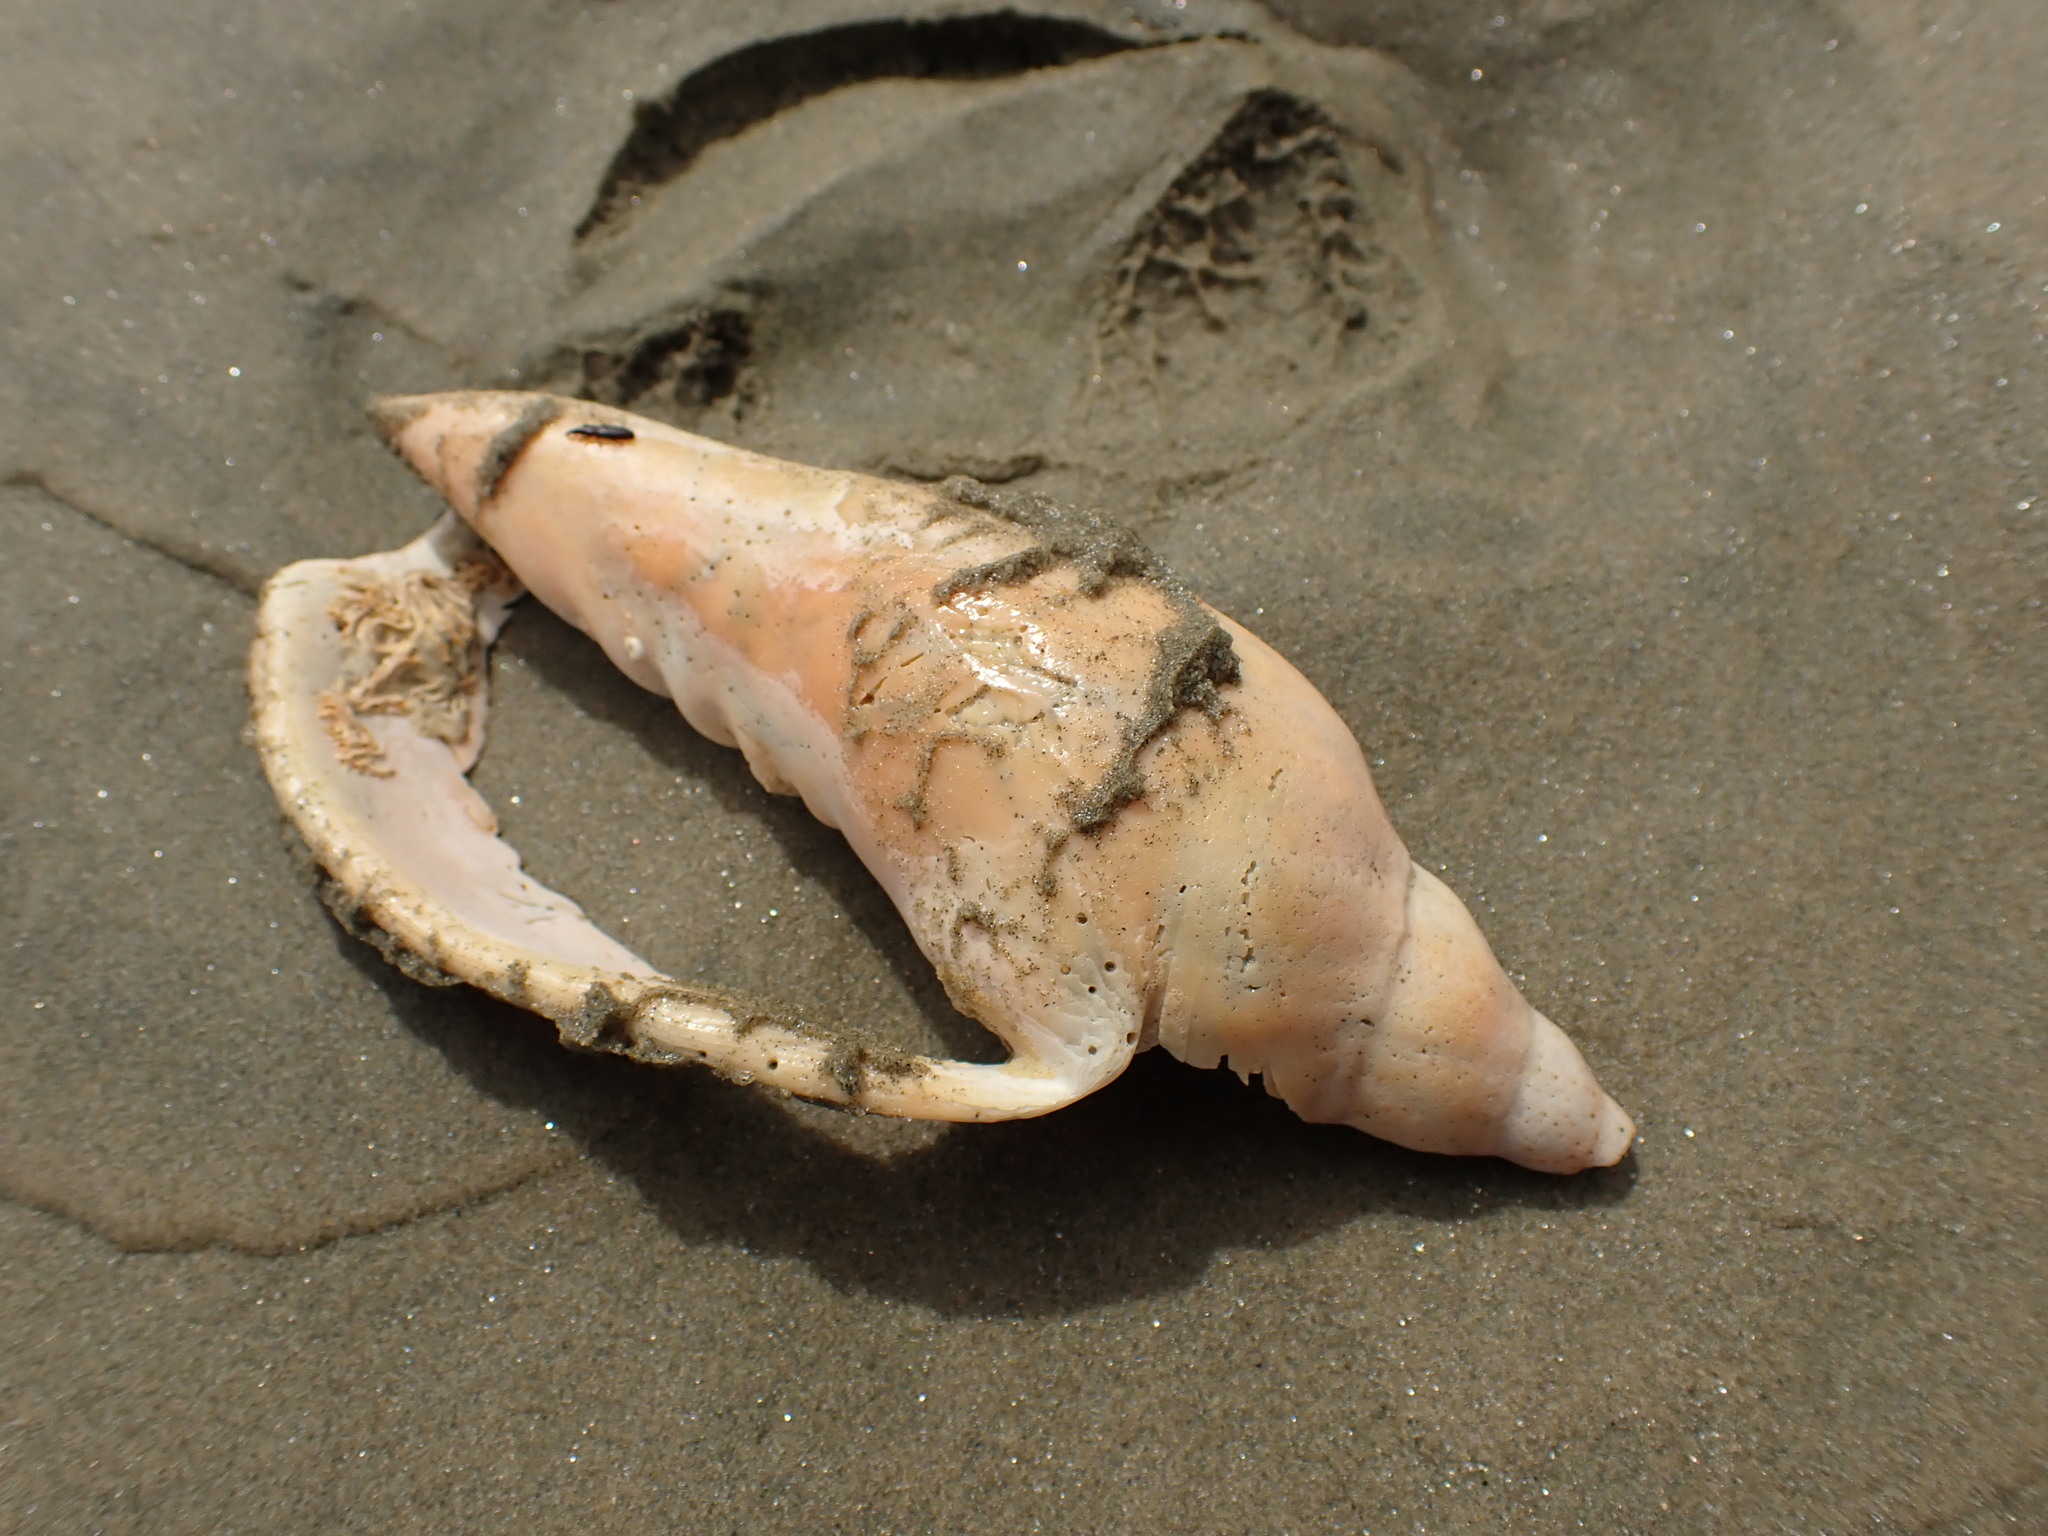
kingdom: Animalia
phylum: Mollusca
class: Gastropoda
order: Neogastropoda
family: Volutidae
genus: Alcithoe
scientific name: Alcithoe arabica
